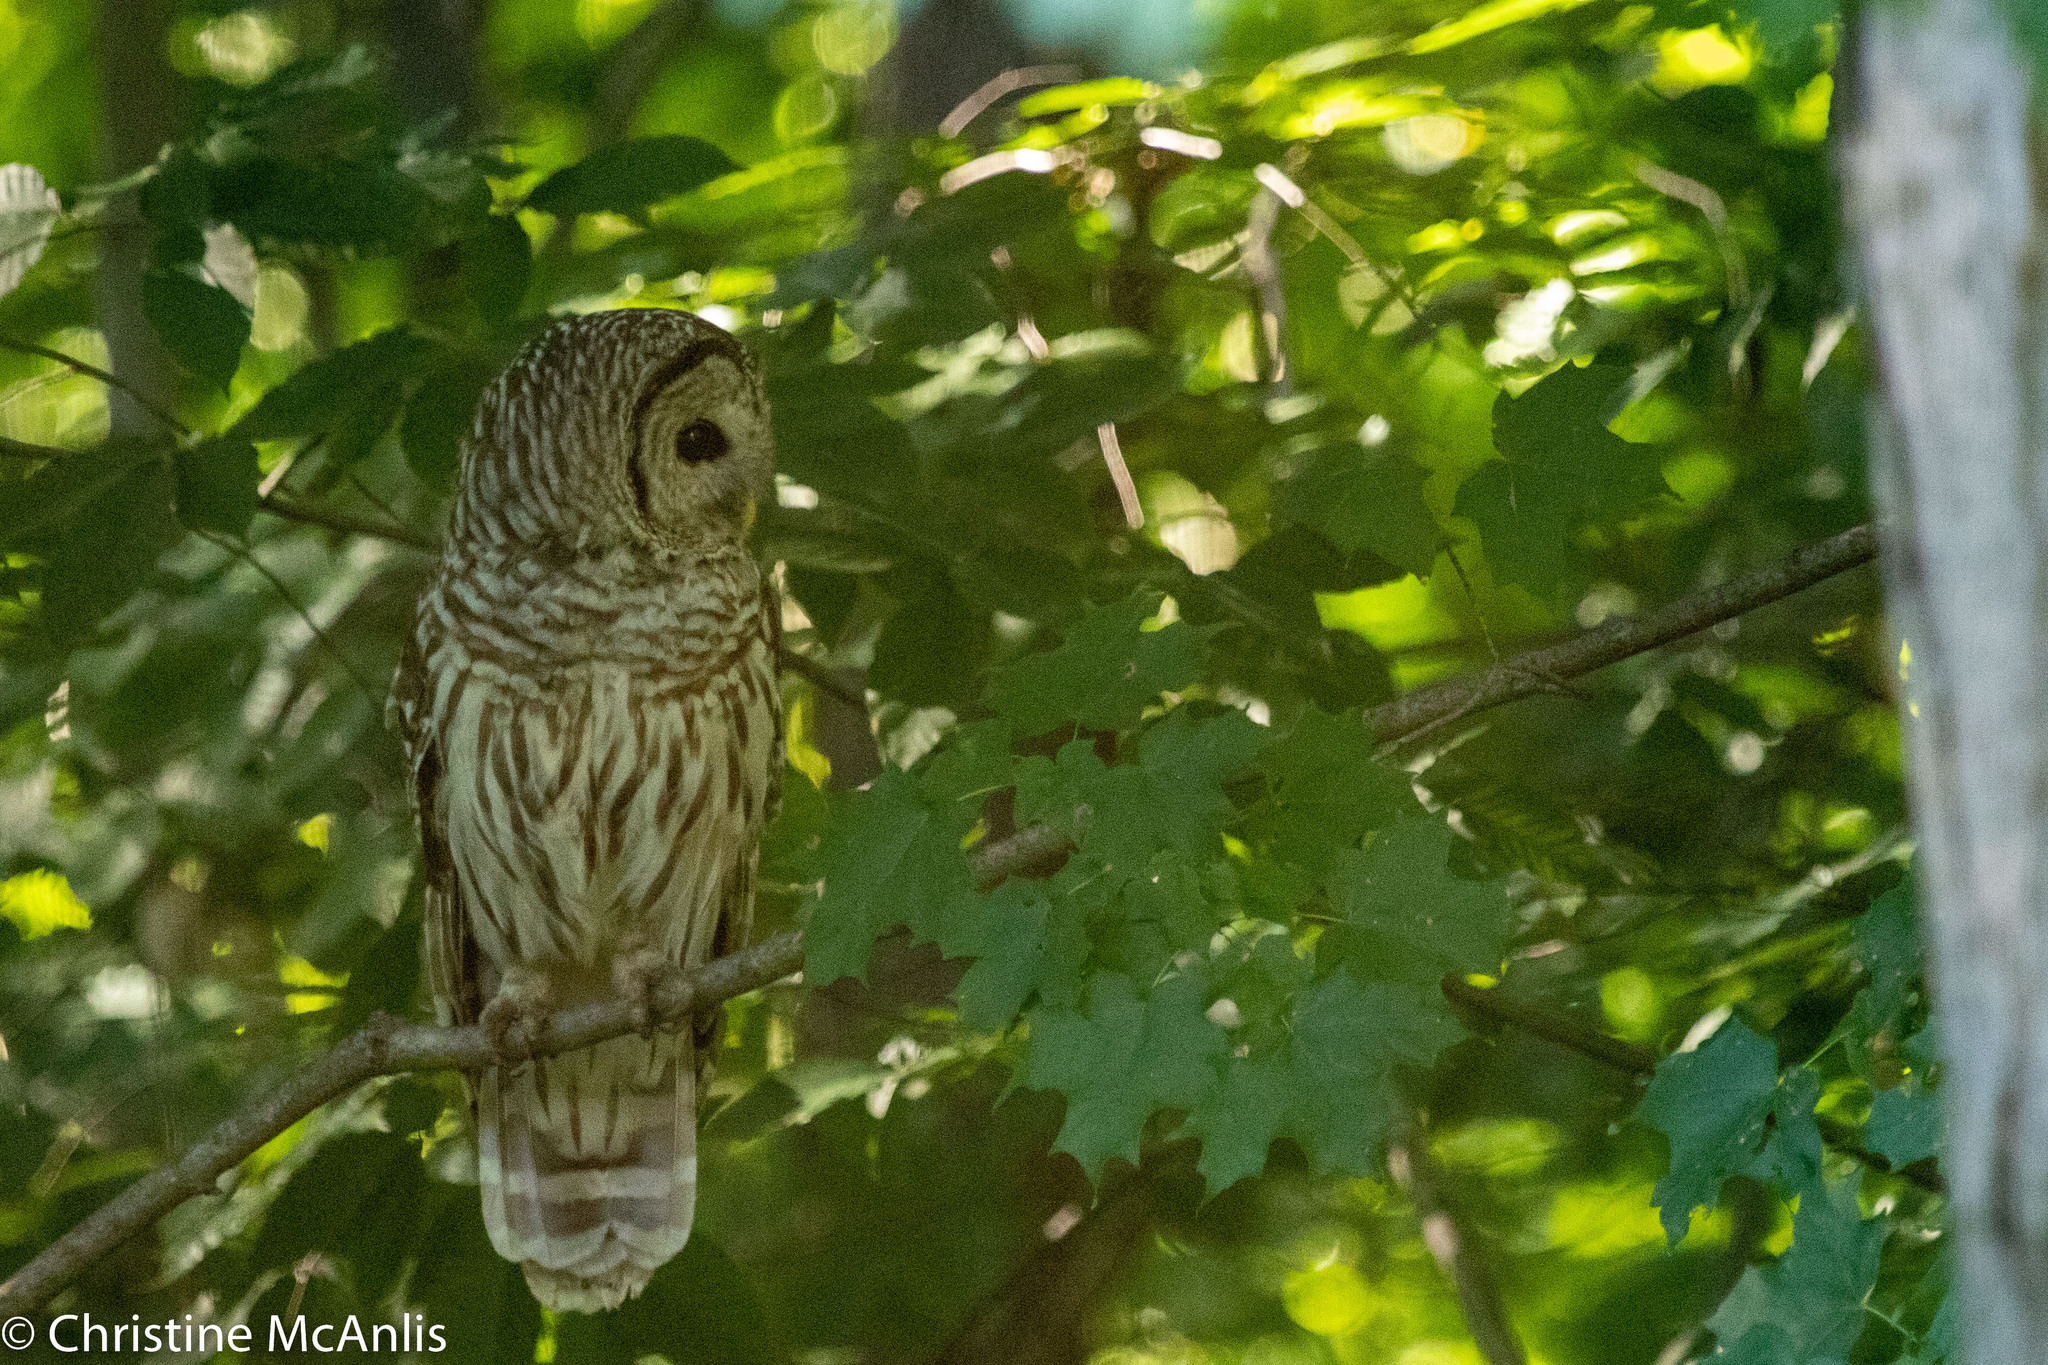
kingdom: Animalia
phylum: Chordata
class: Aves
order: Strigiformes
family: Strigidae
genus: Strix
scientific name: Strix varia
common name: Barred owl
